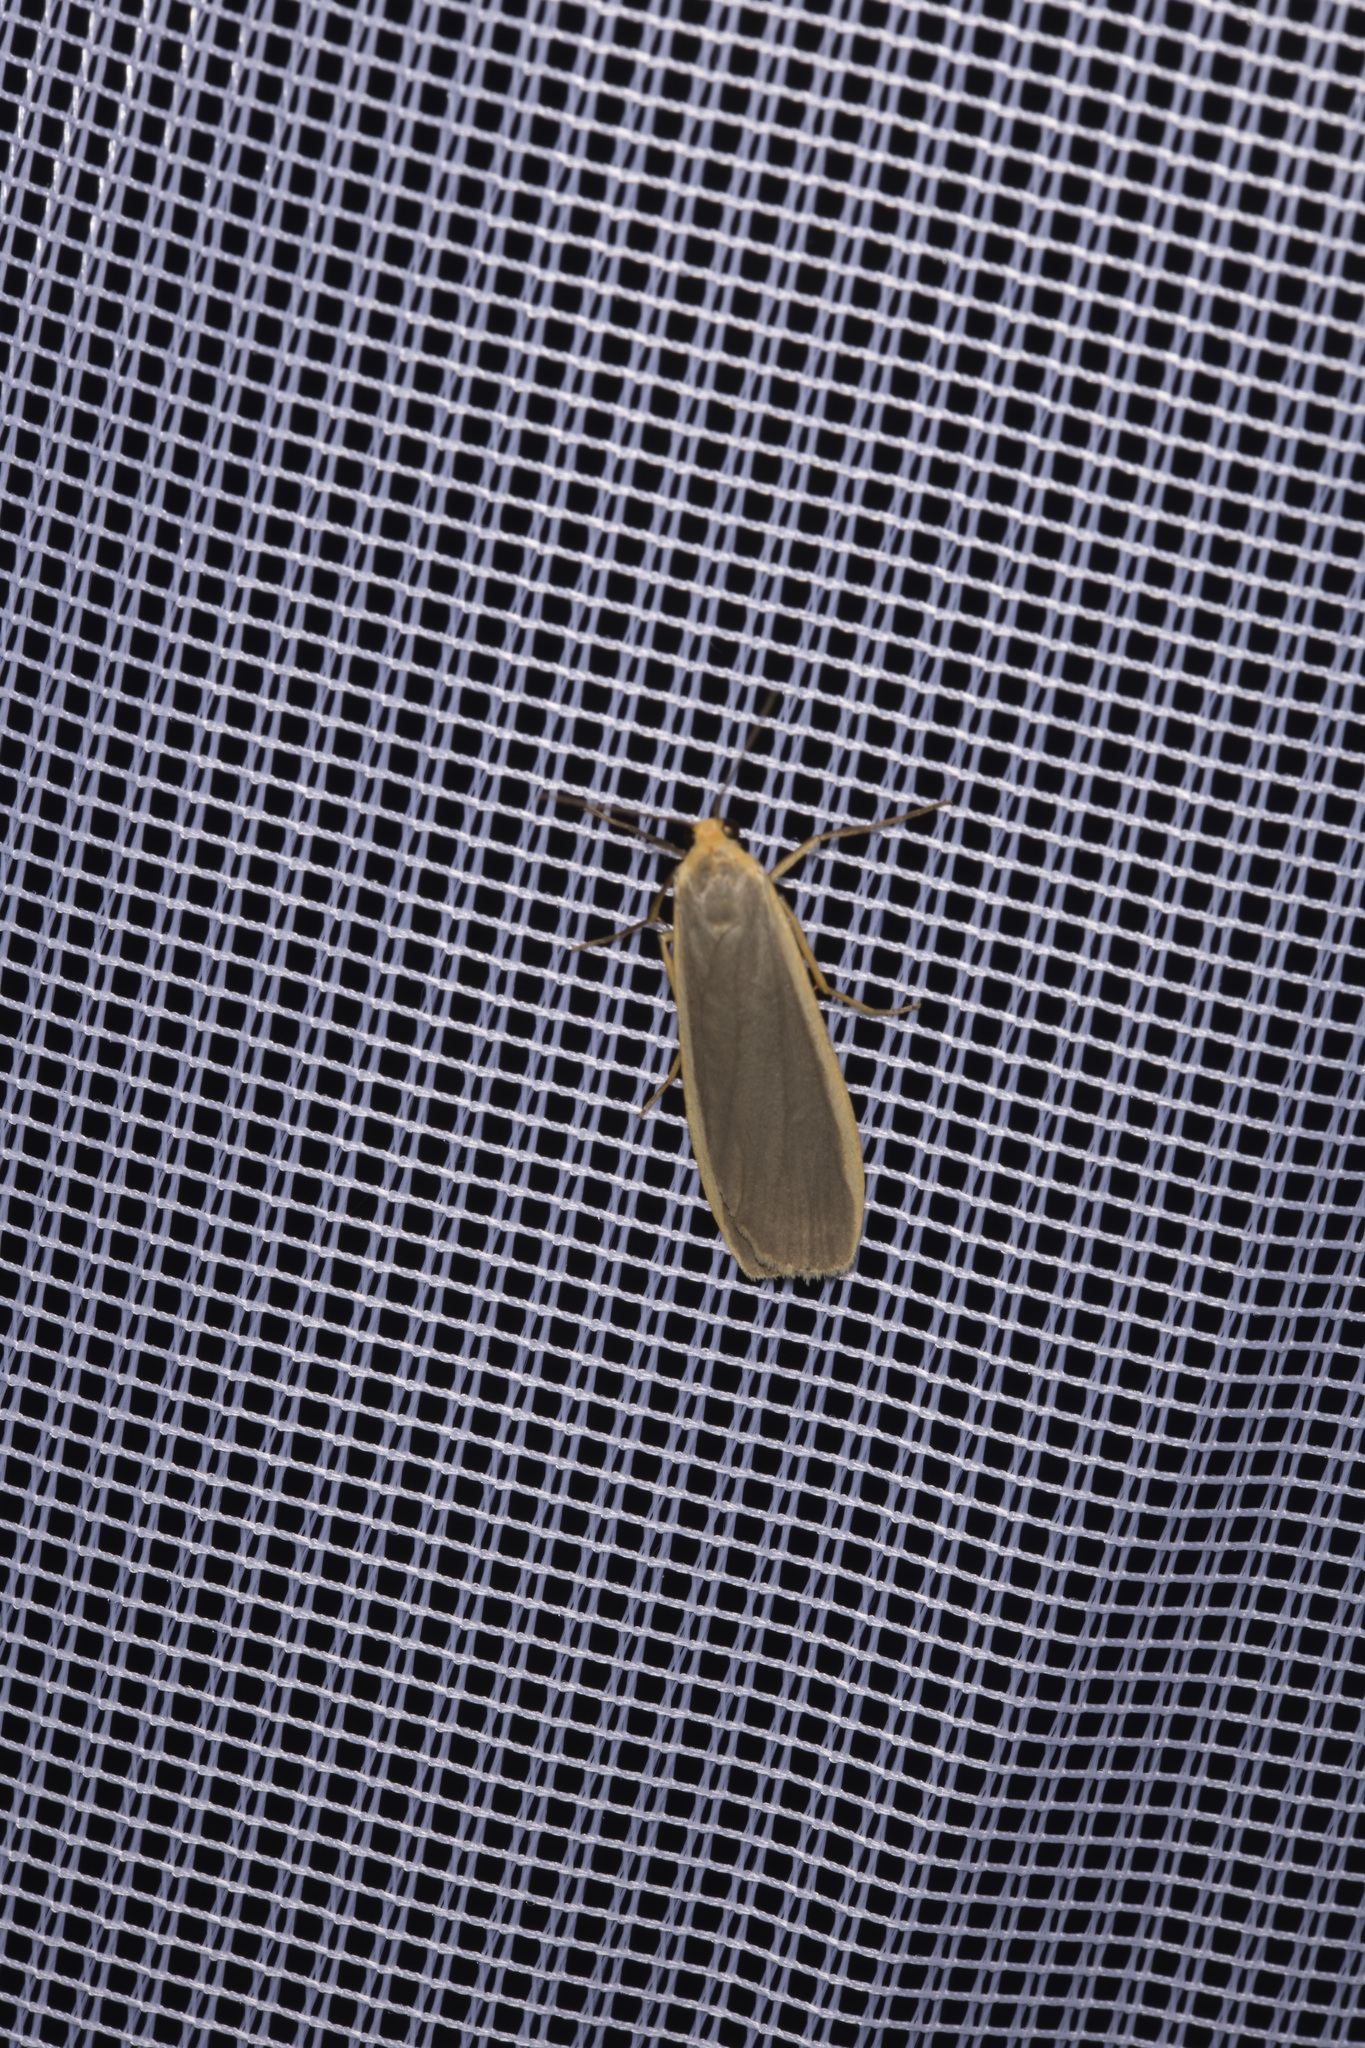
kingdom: Animalia
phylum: Arthropoda
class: Insecta
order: Lepidoptera
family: Erebidae
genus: Nyea
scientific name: Nyea lurideola
